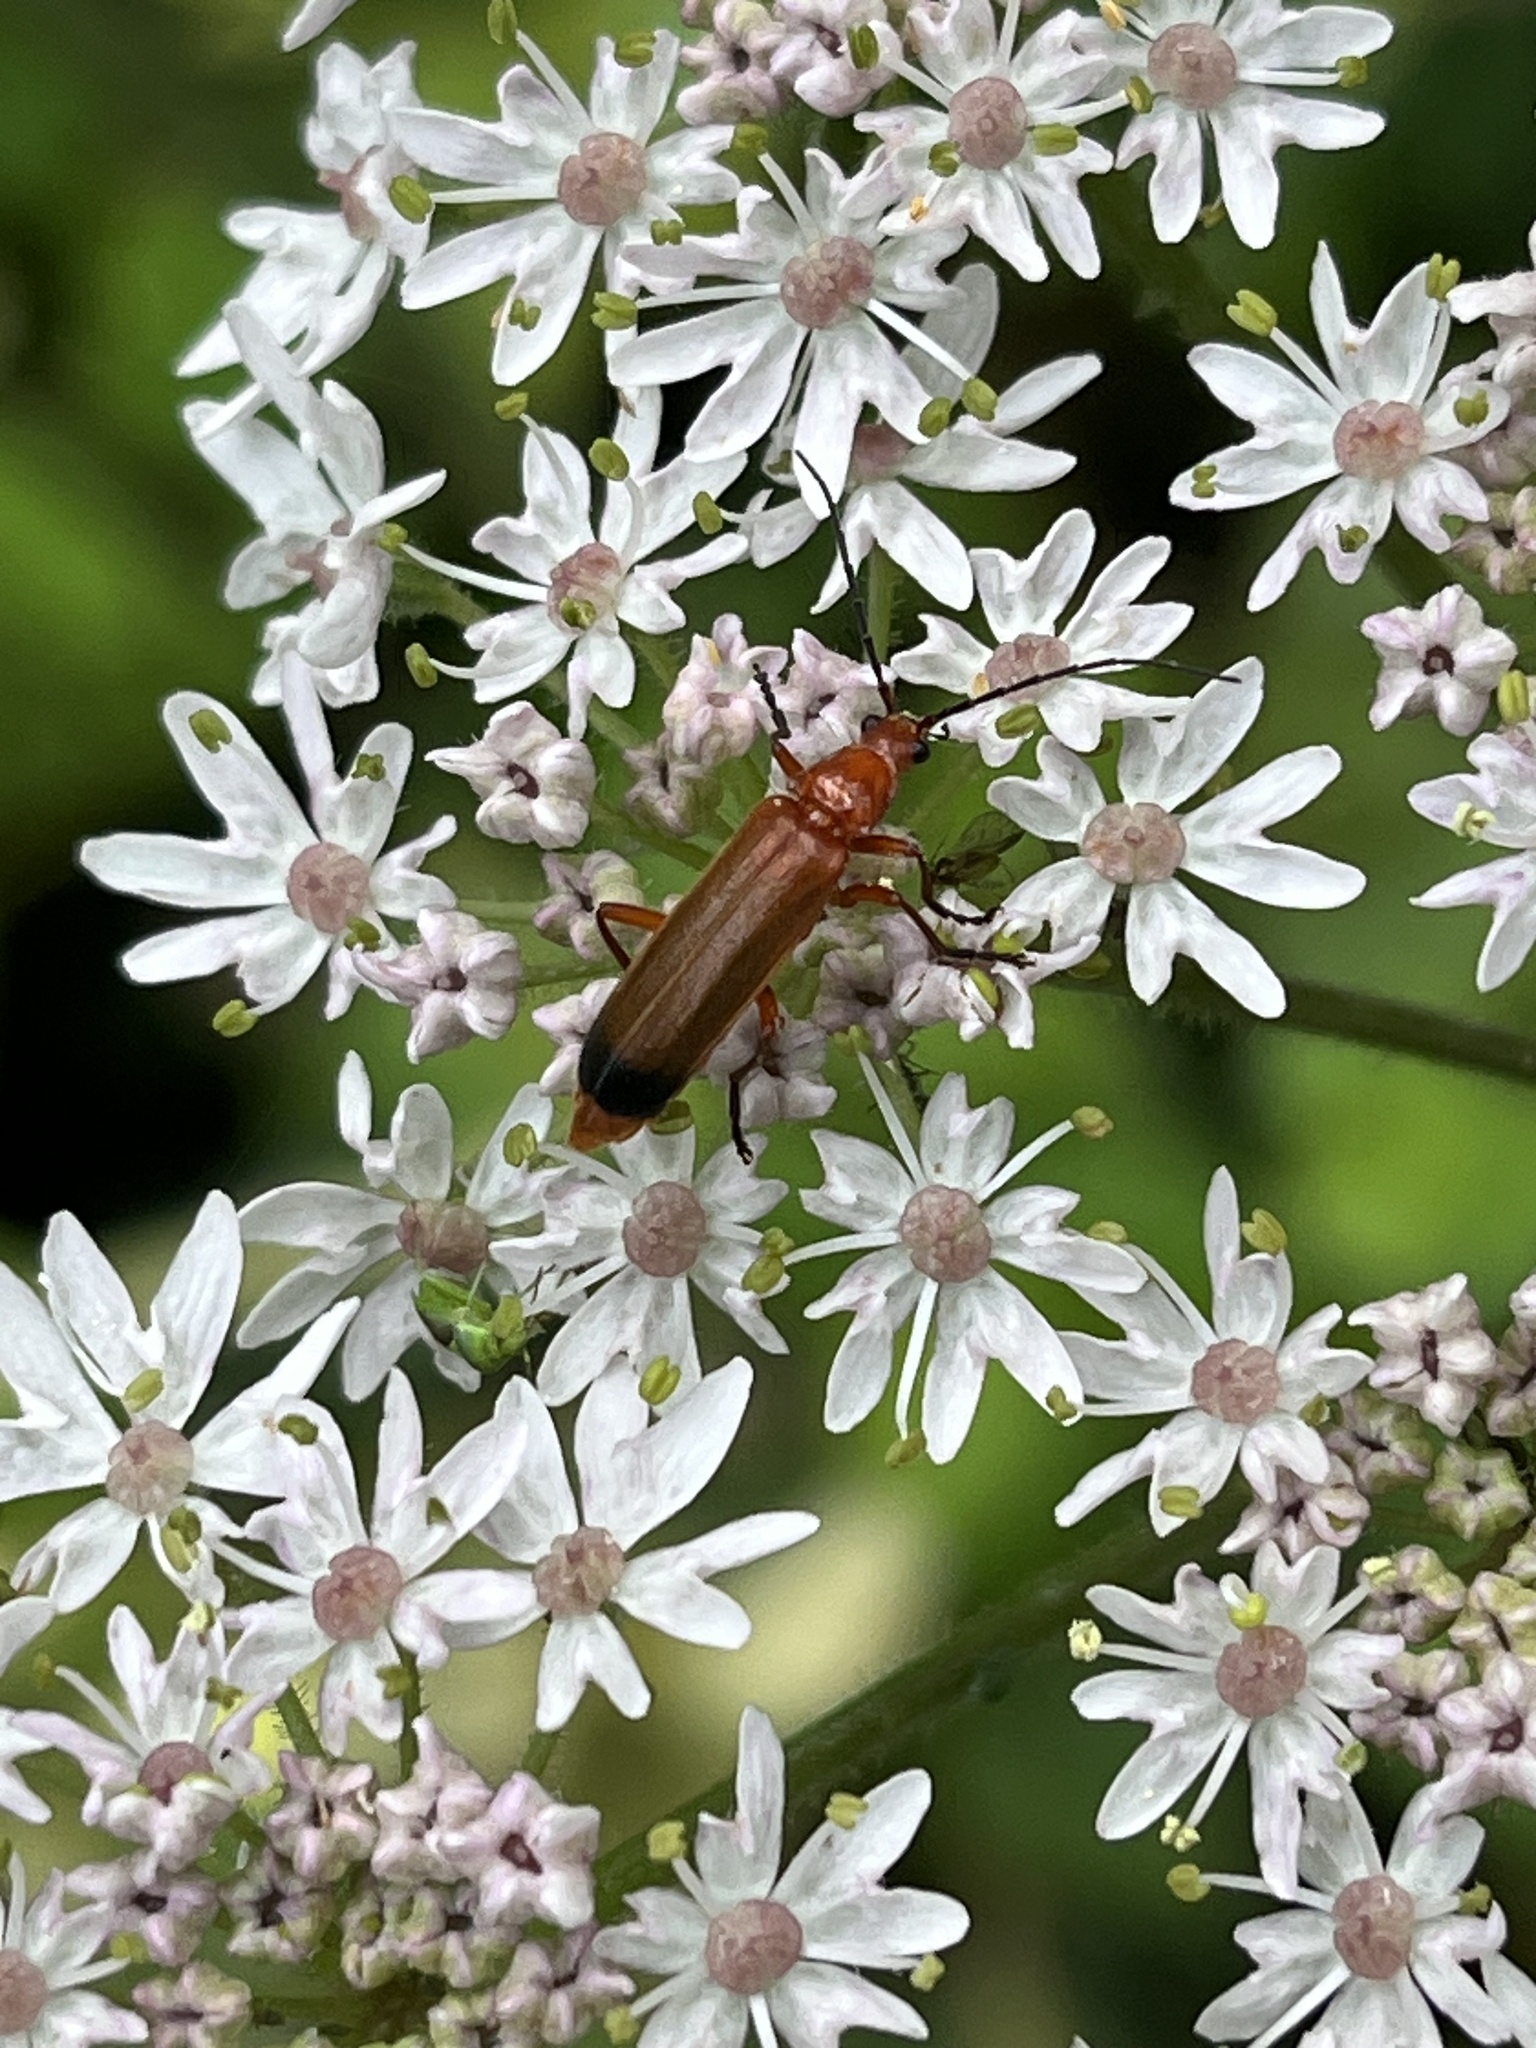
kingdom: Animalia
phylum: Arthropoda
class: Insecta
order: Coleoptera
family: Cantharidae
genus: Rhagonycha
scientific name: Rhagonycha fulva
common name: Common red soldier beetle
